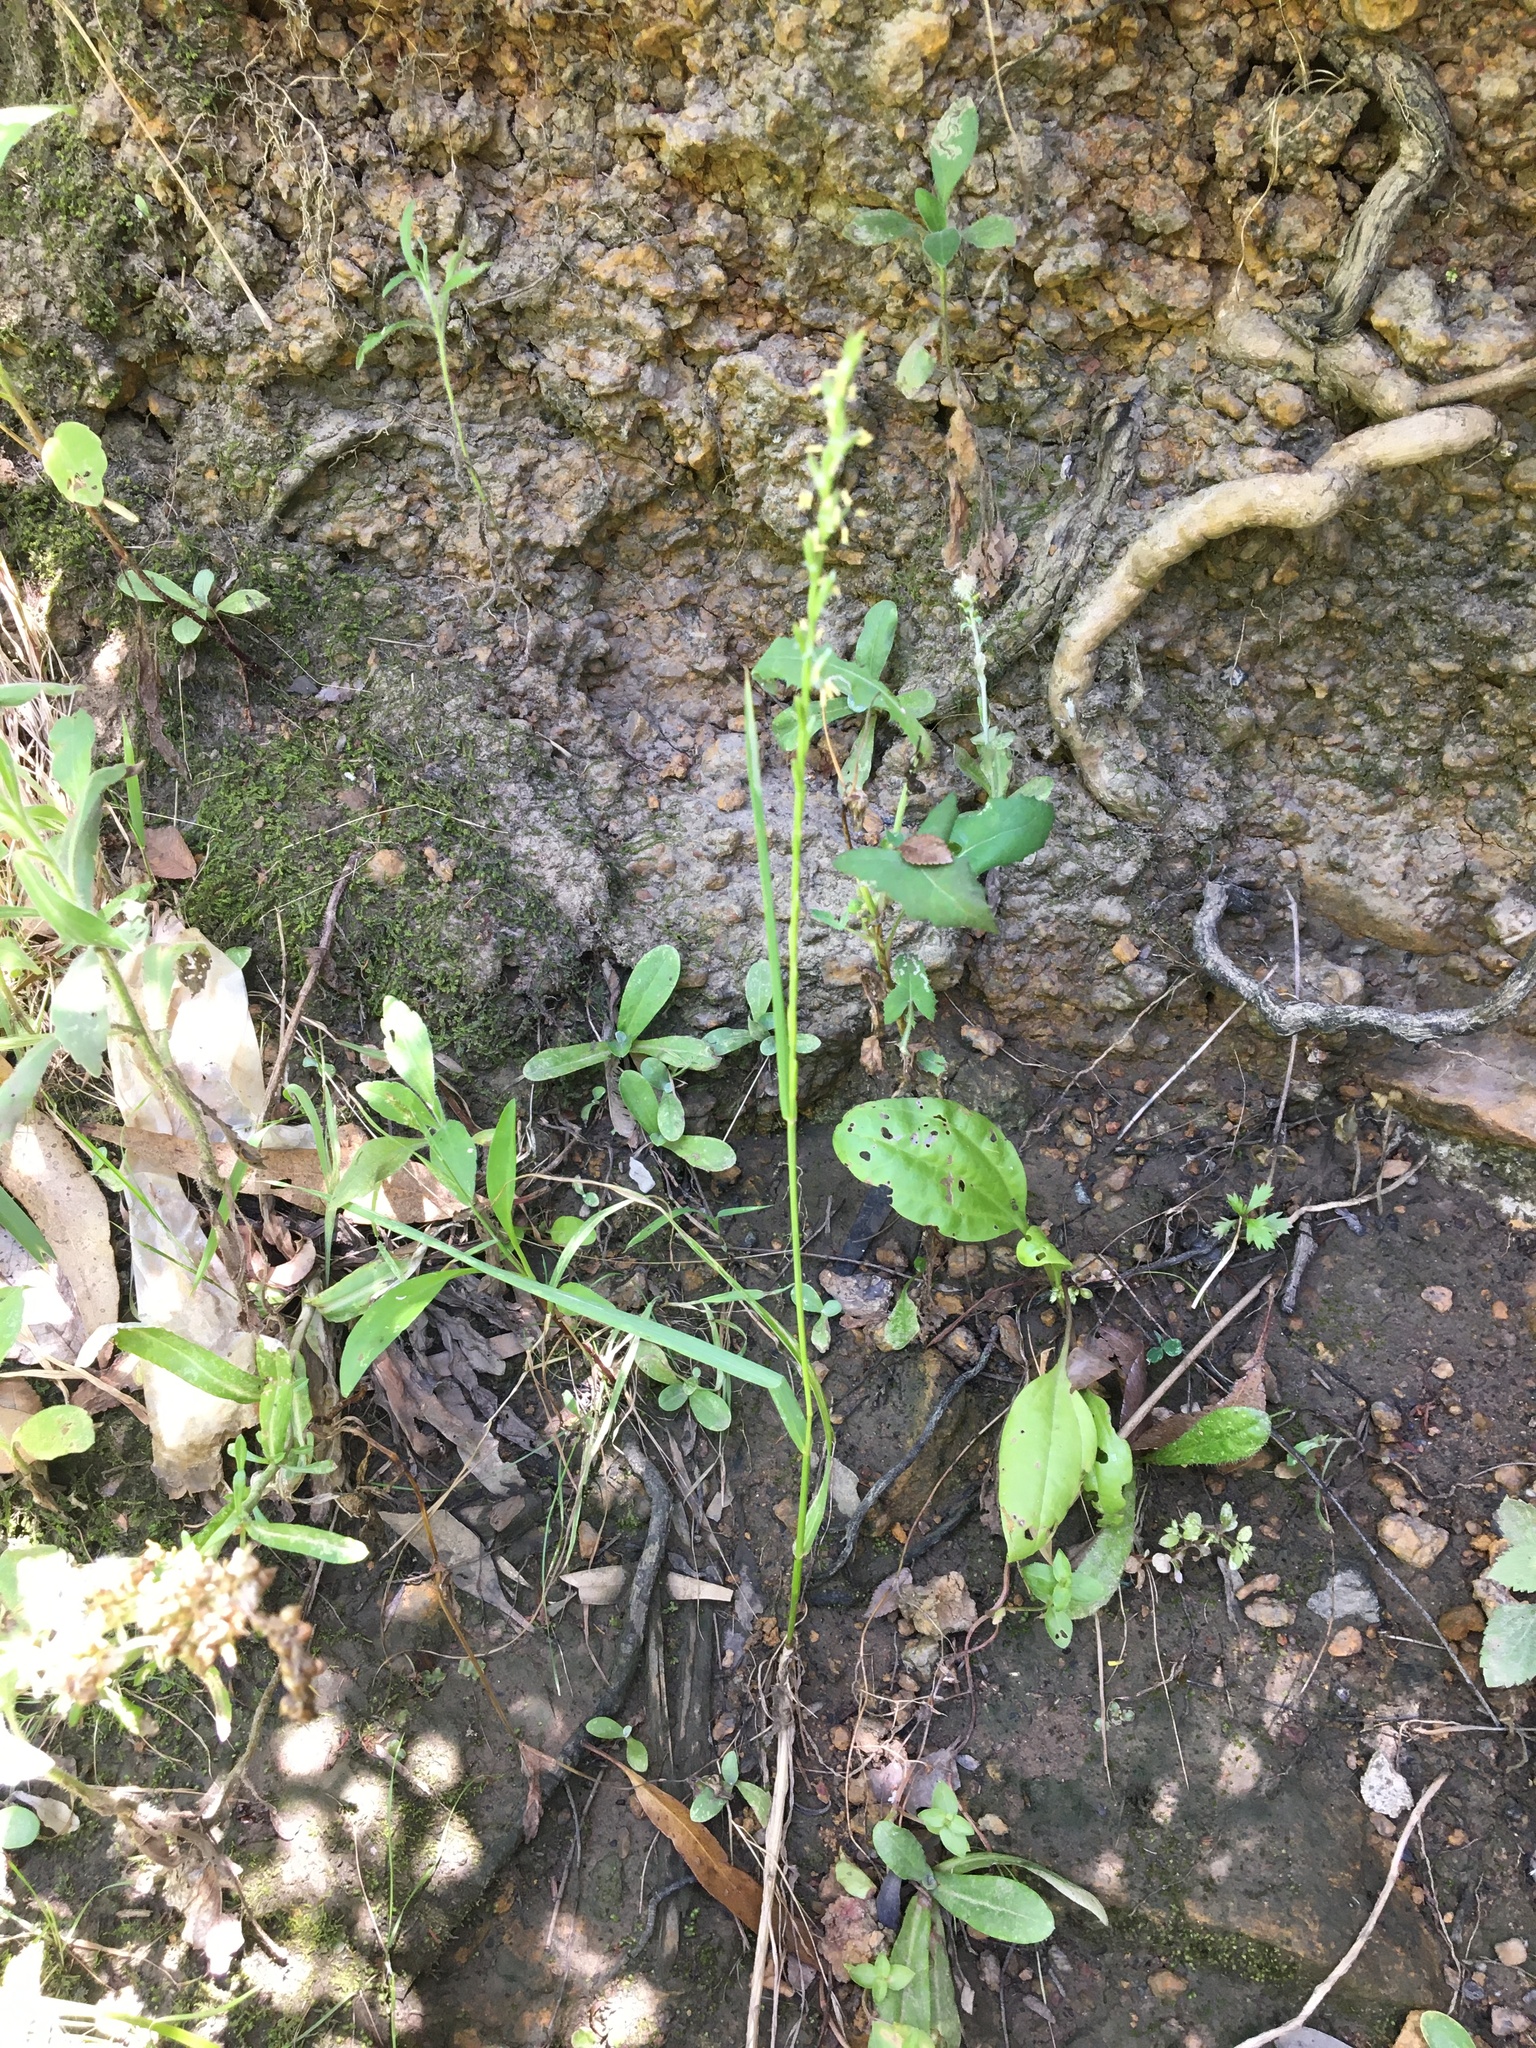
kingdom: Plantae
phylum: Tracheophyta
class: Liliopsida
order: Poales
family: Poaceae
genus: Lolium
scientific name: Lolium rigidum
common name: Wimmera ryegrass
